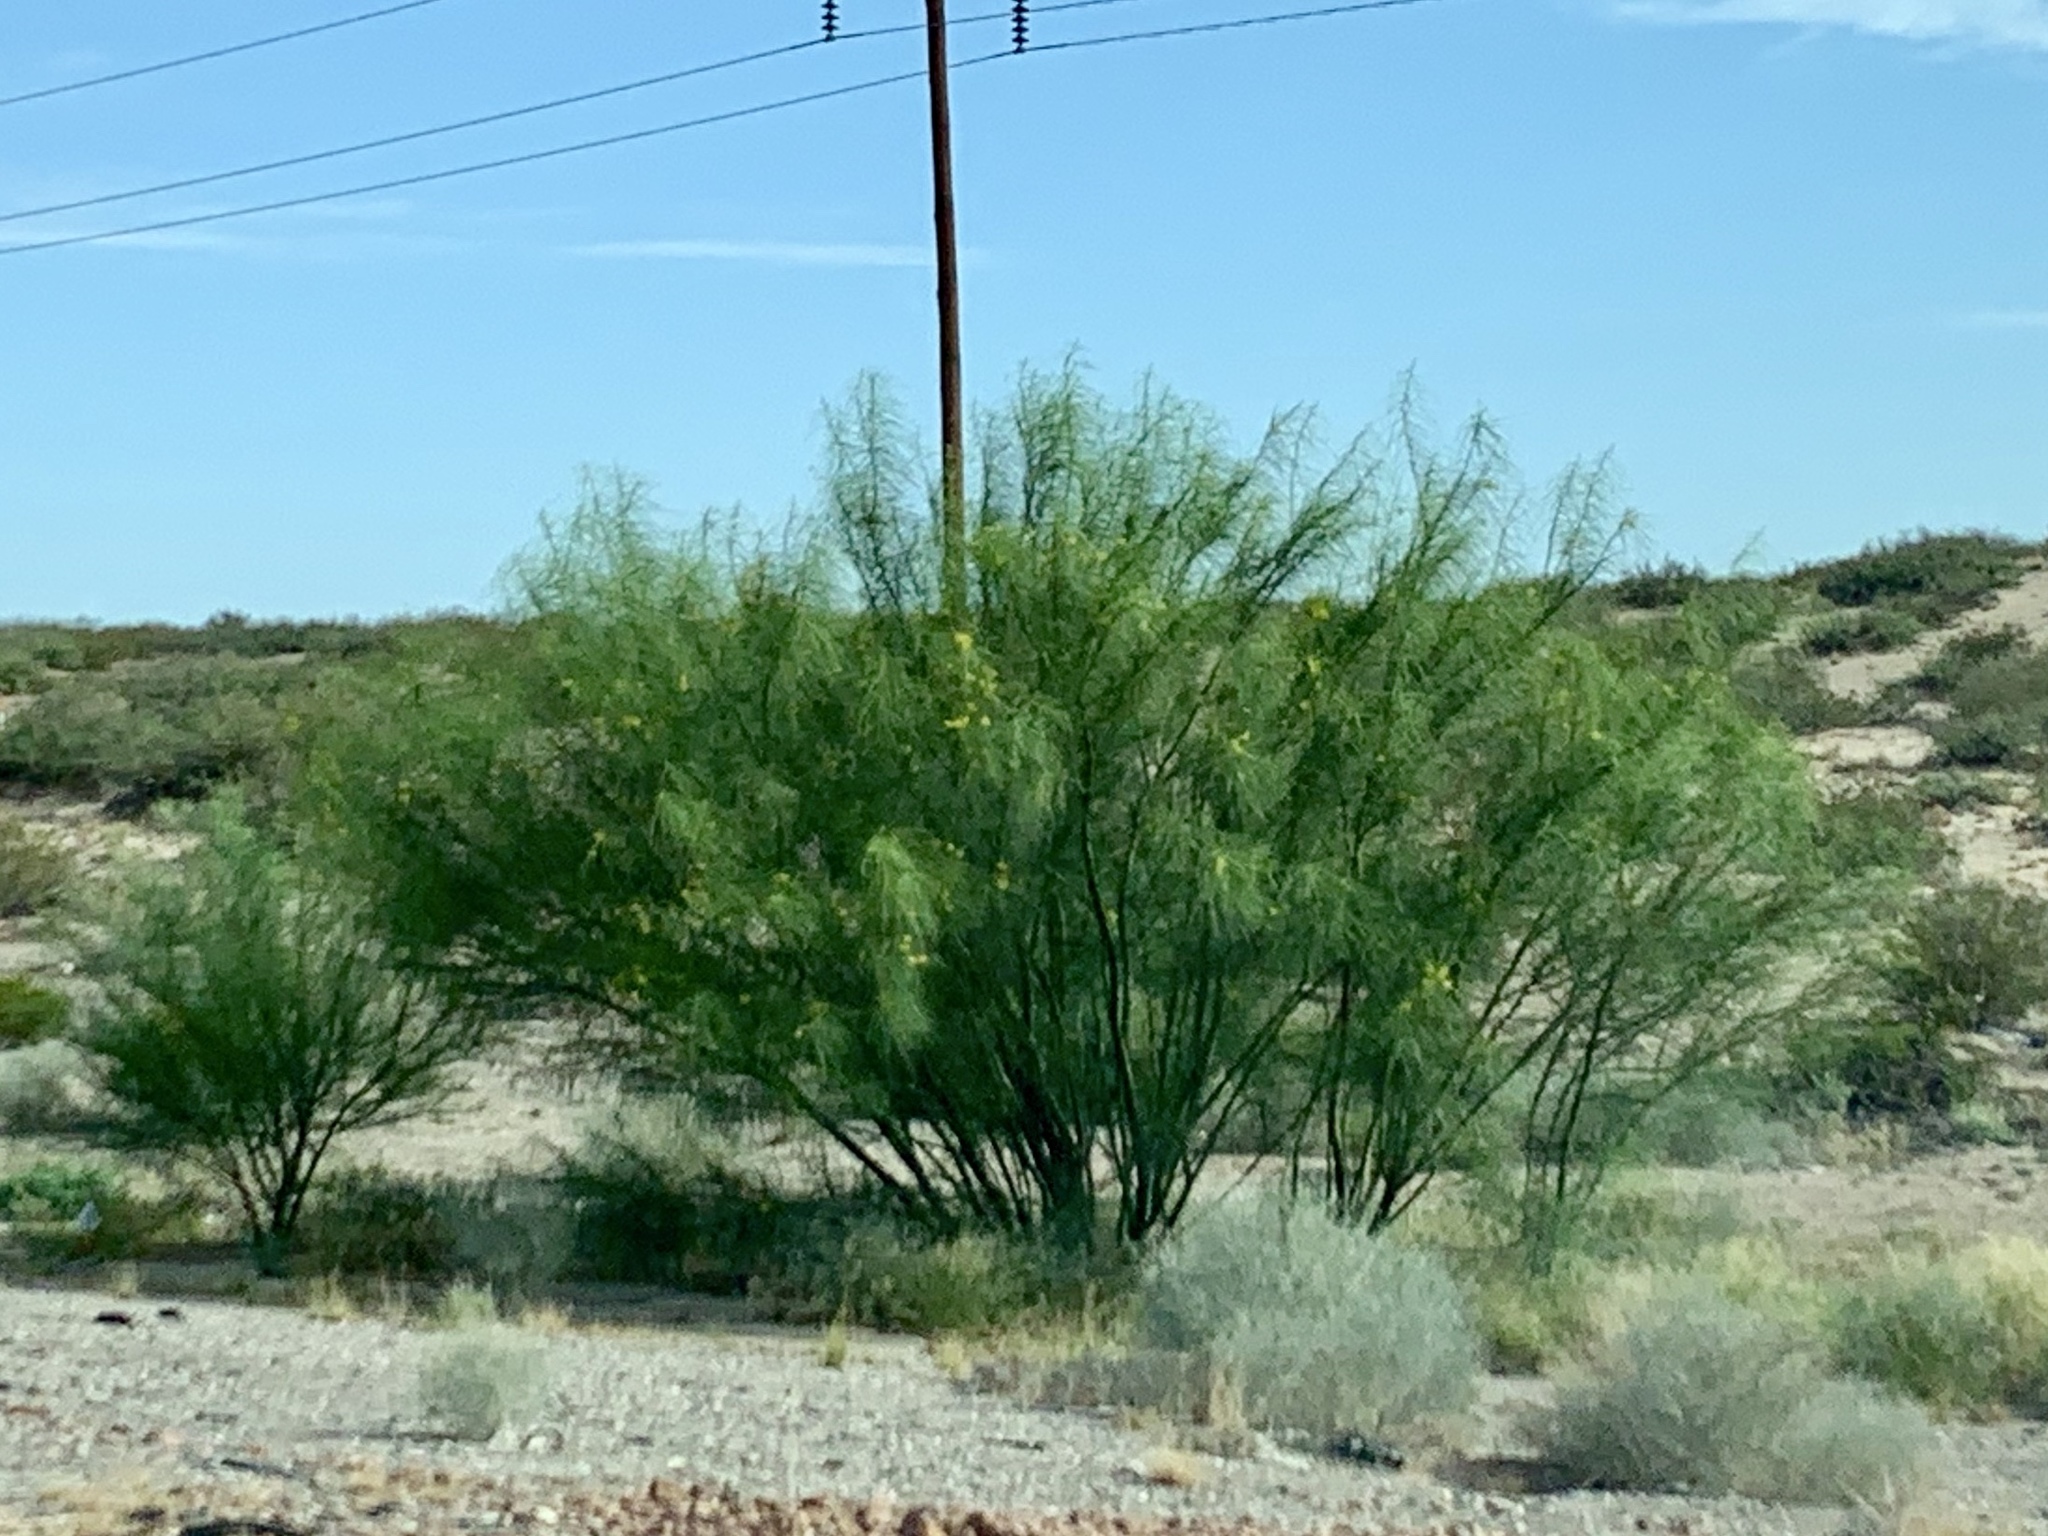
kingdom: Plantae
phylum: Tracheophyta
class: Magnoliopsida
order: Fabales
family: Fabaceae
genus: Parkinsonia
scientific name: Parkinsonia aculeata
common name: Jerusalem thorn
